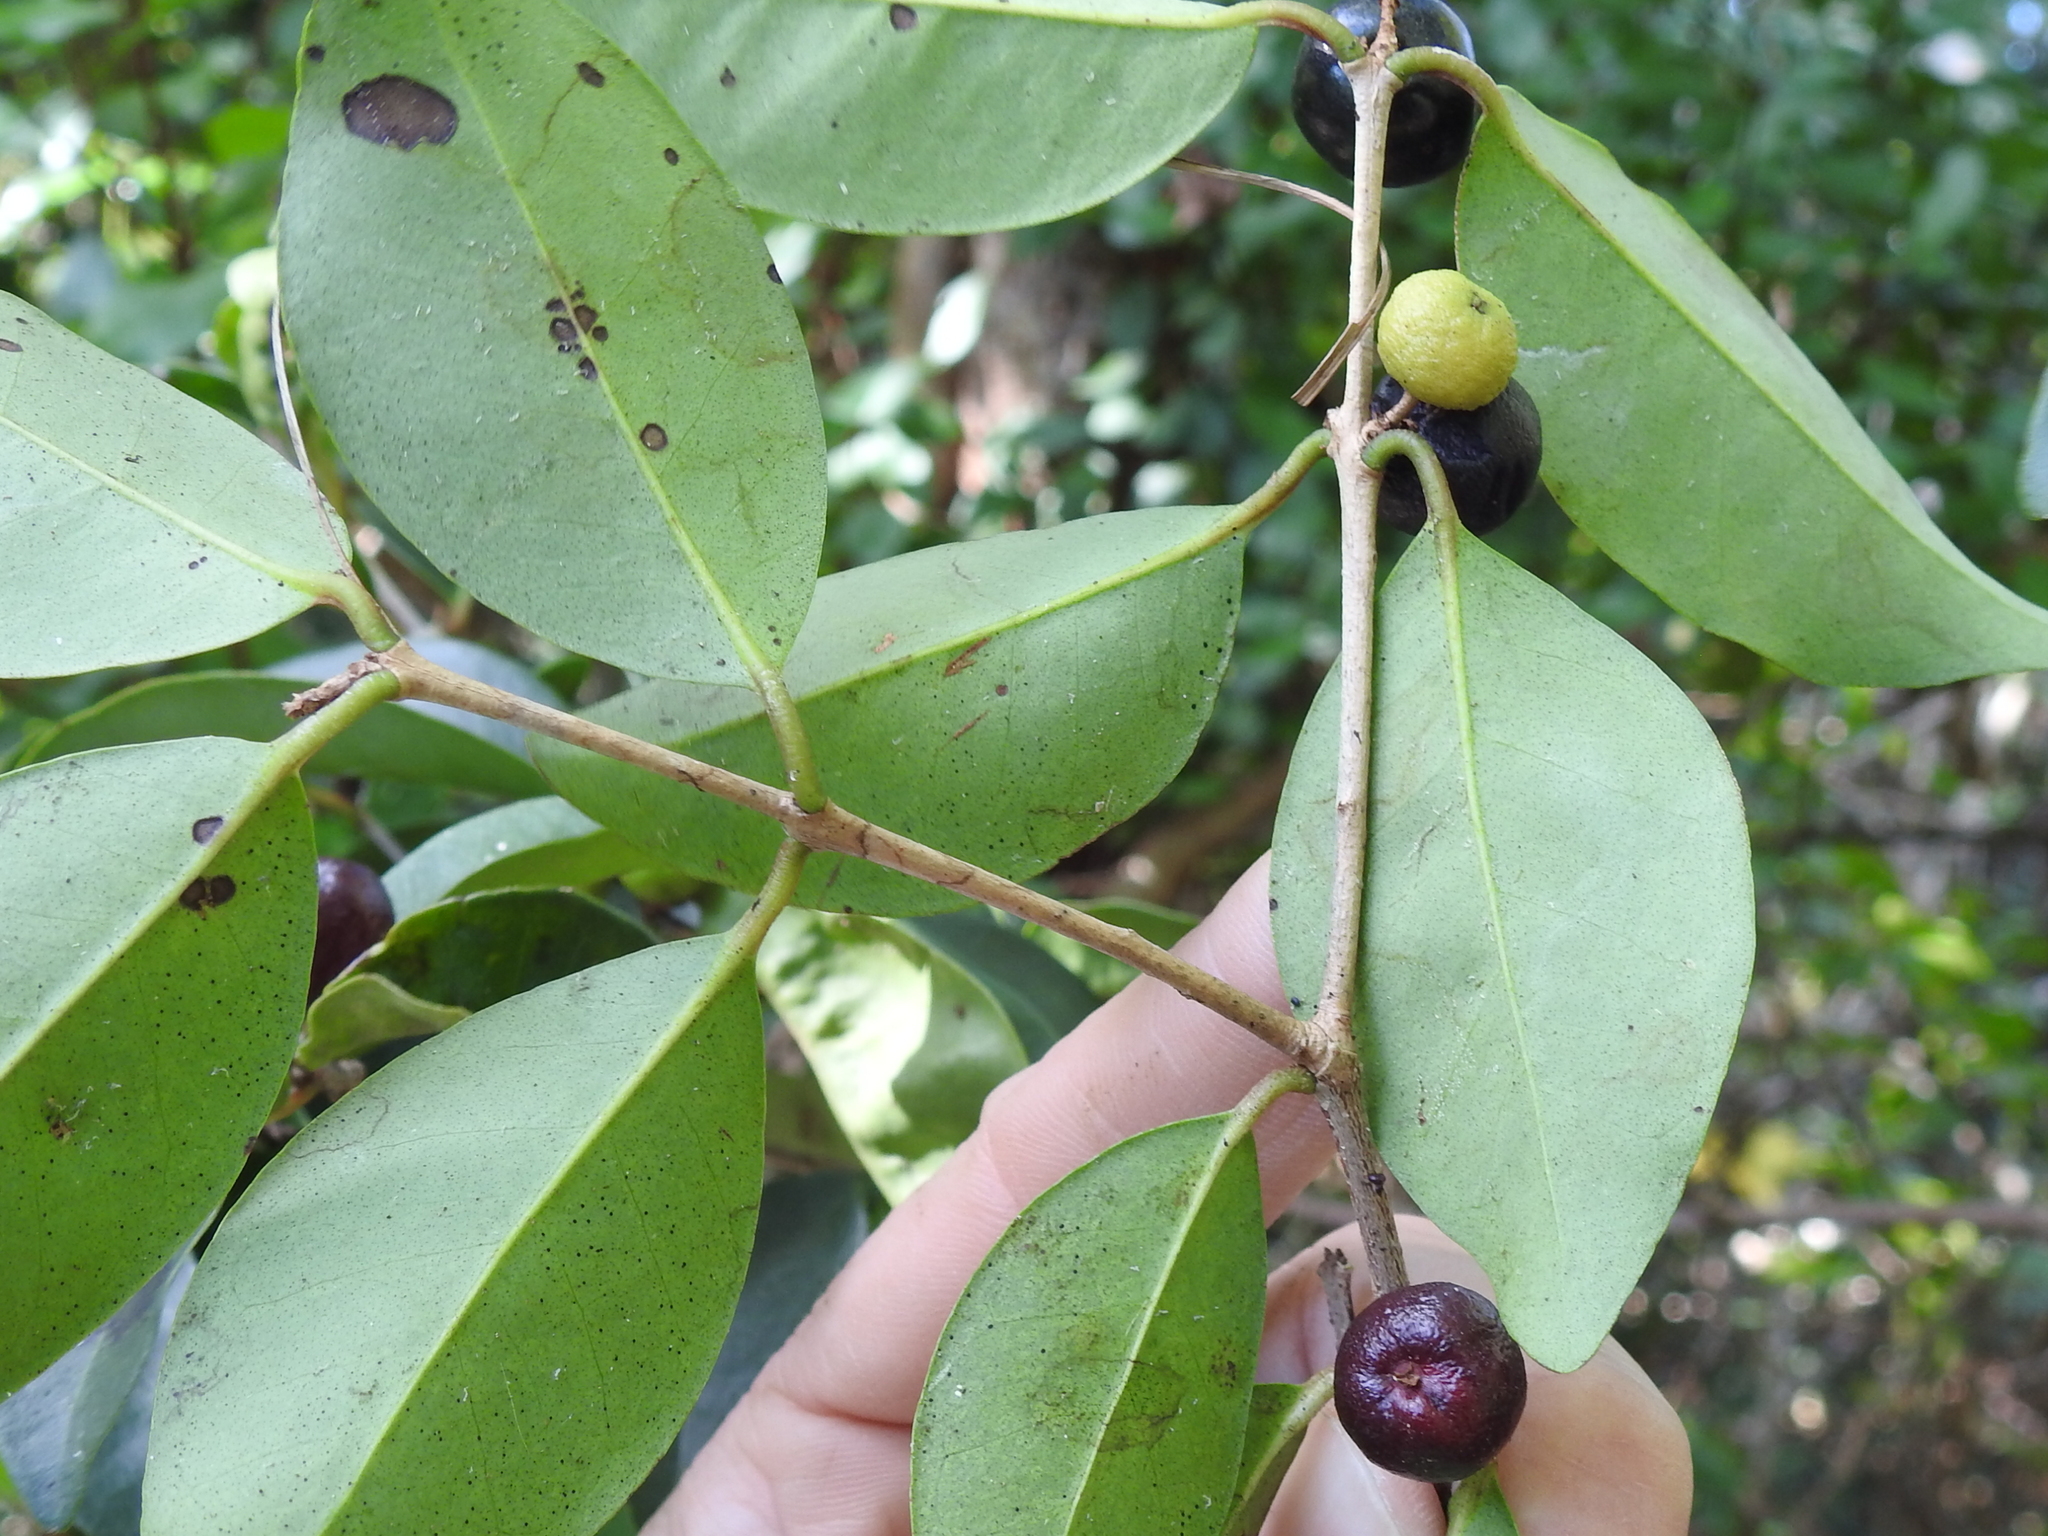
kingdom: Plantae
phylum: Tracheophyta
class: Magnoliopsida
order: Myrtales
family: Myrtaceae
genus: Eugenia
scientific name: Eugenia axillaris
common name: Choaky berry
